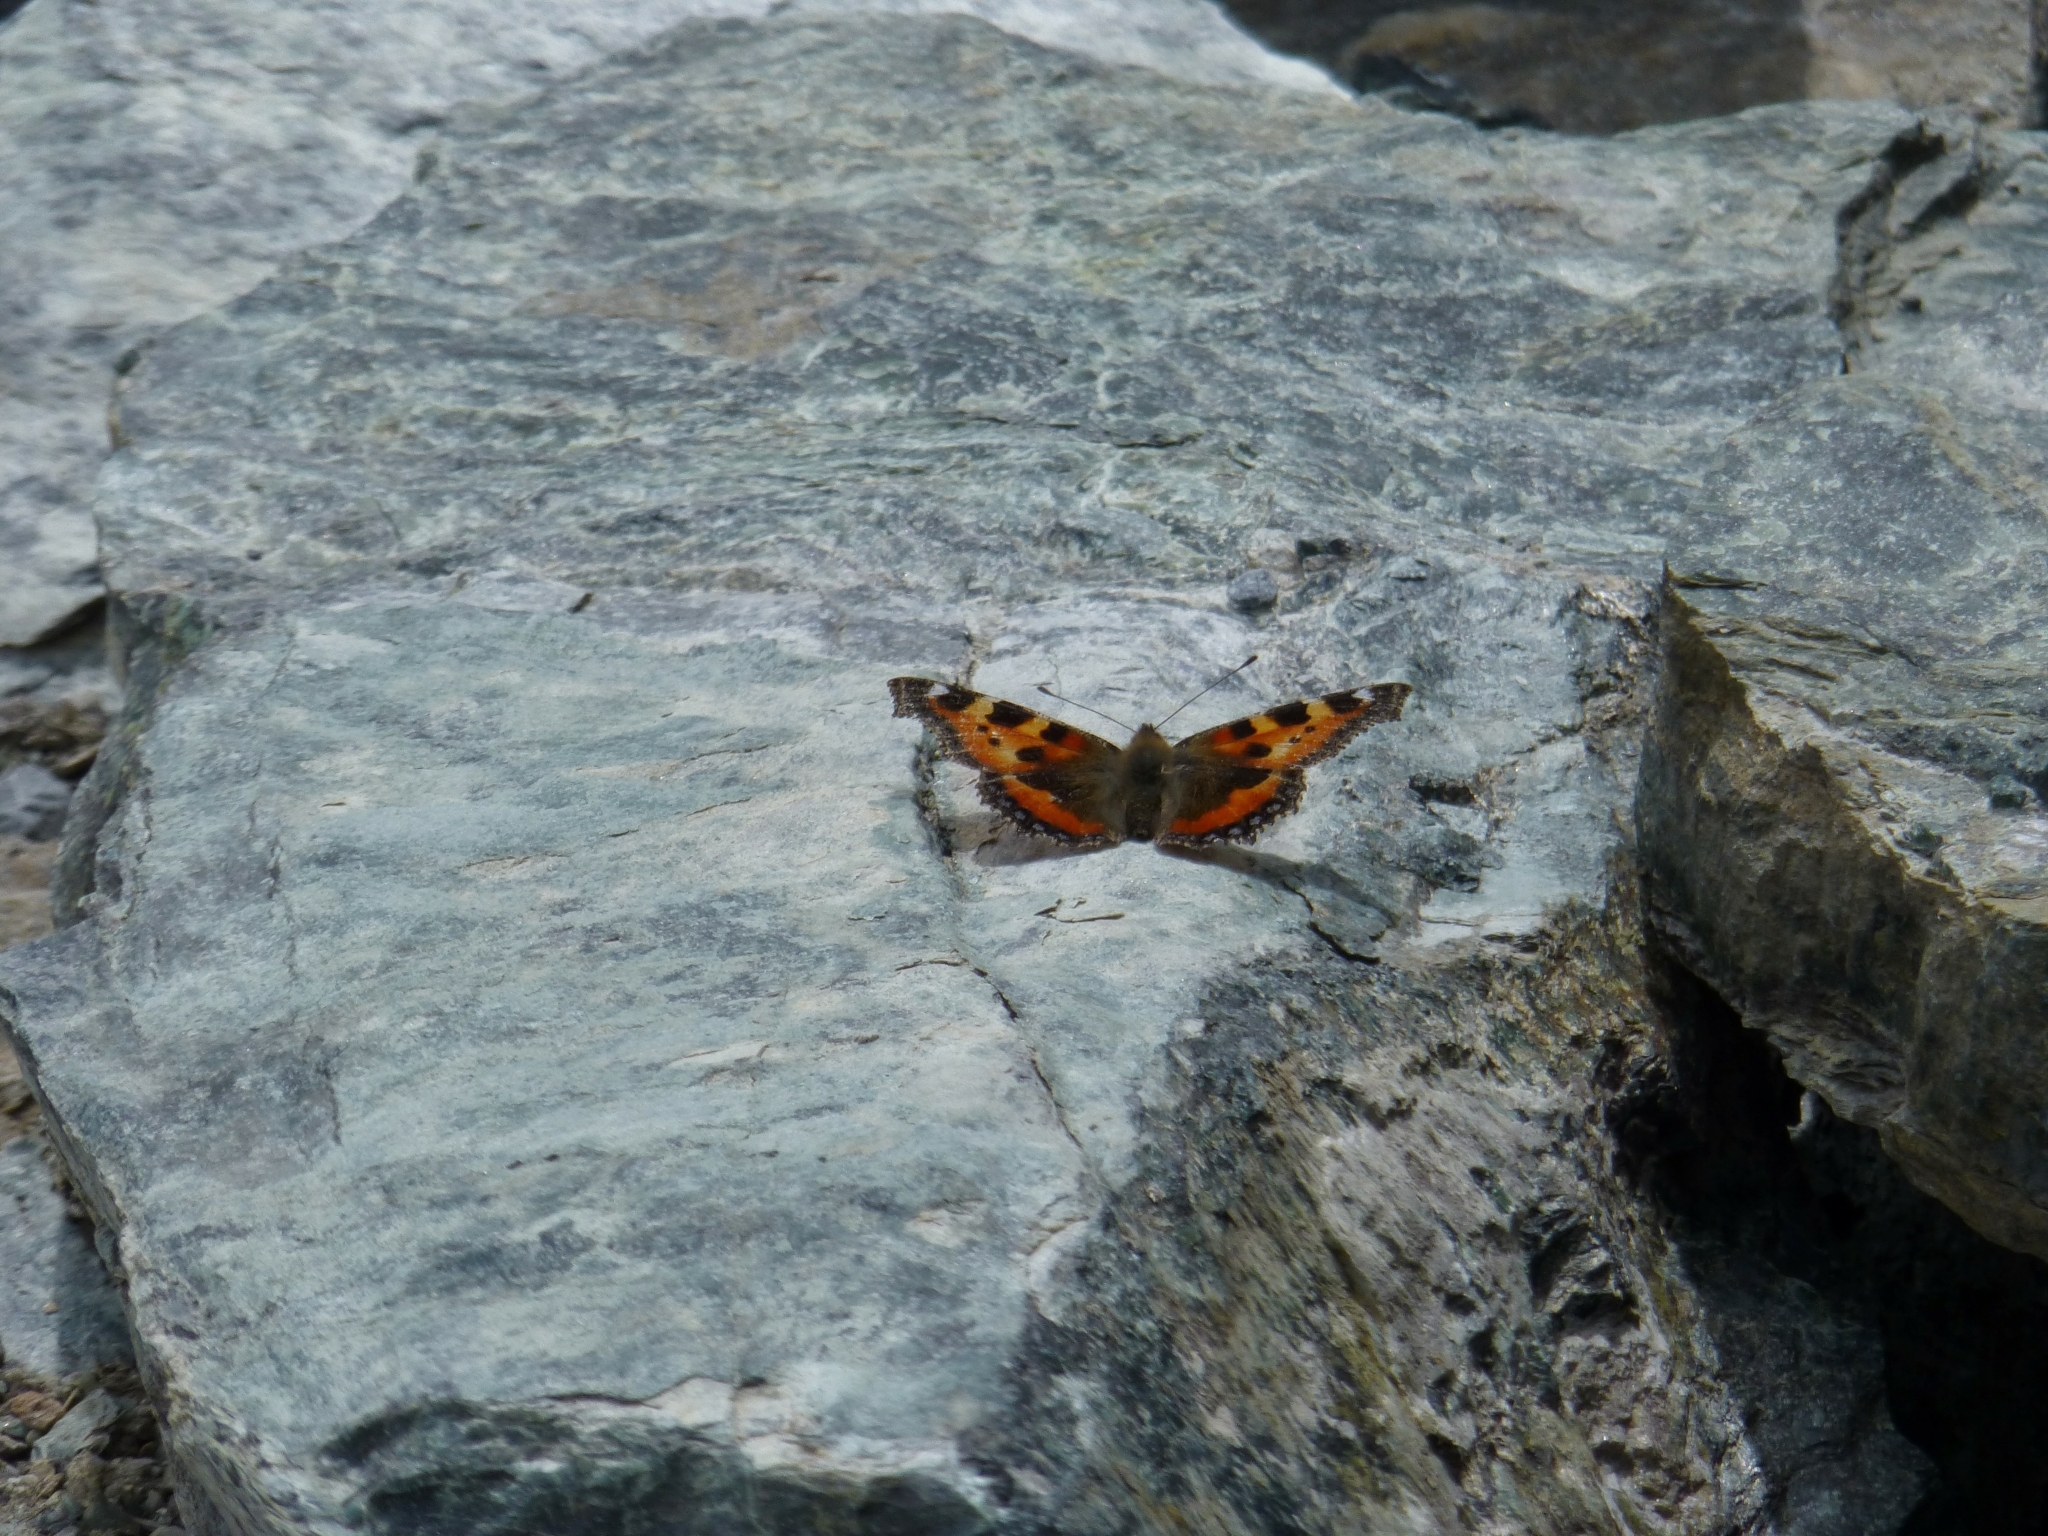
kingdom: Animalia
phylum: Arthropoda
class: Insecta
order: Lepidoptera
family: Nymphalidae
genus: Aglais
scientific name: Aglais urticae
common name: Small tortoiseshell
